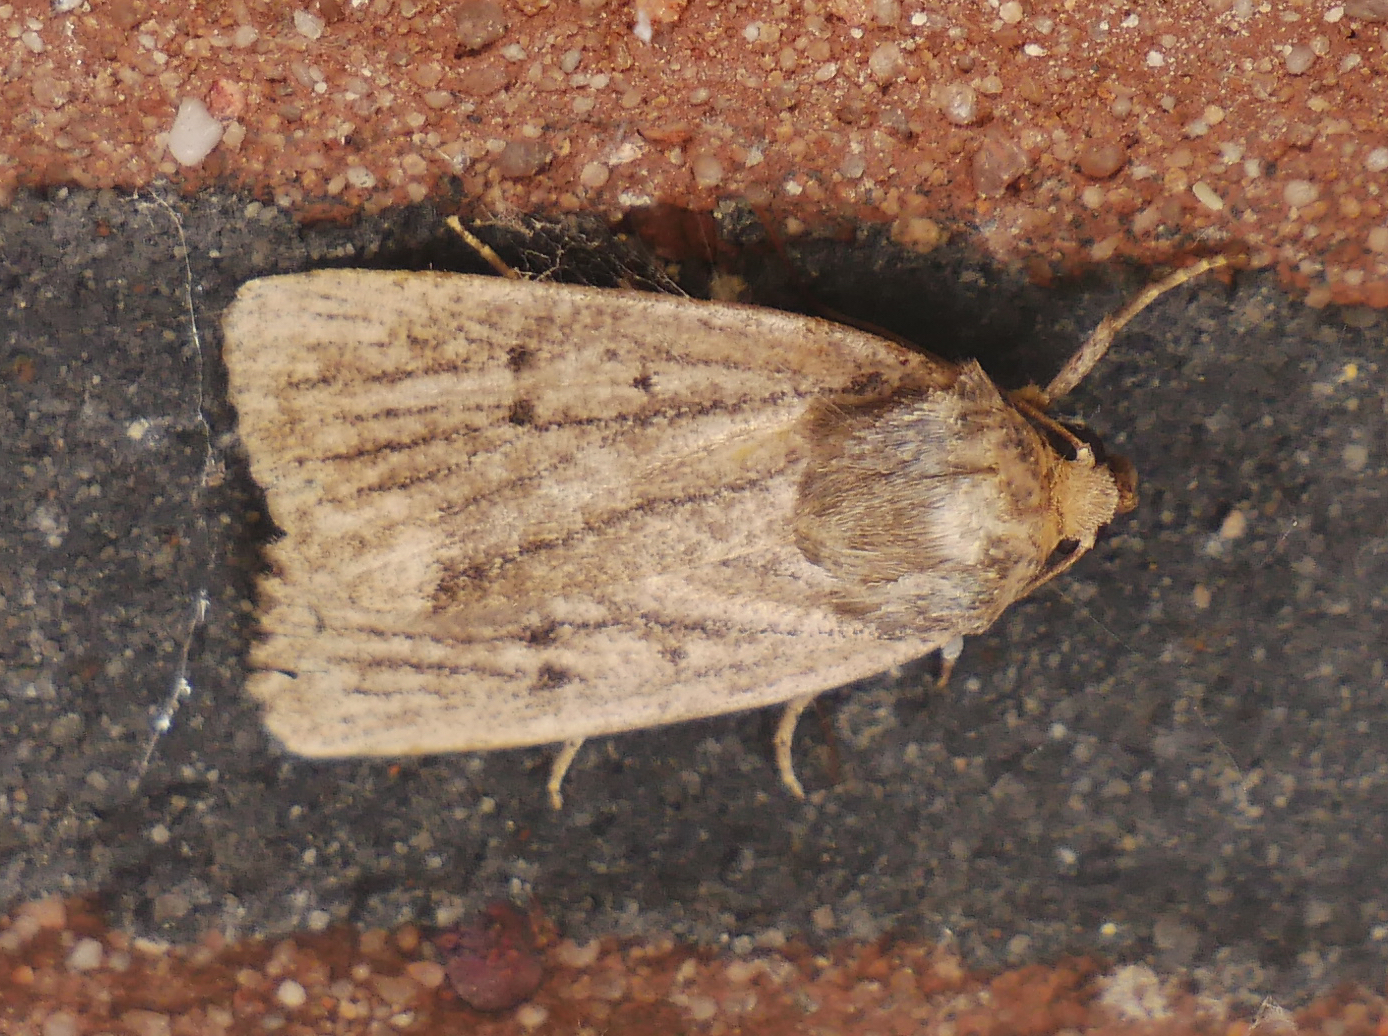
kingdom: Animalia
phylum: Arthropoda
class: Insecta
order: Lepidoptera
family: Noctuidae
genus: Amphipyra
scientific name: Amphipyra tragopoginis
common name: Mouse moth
